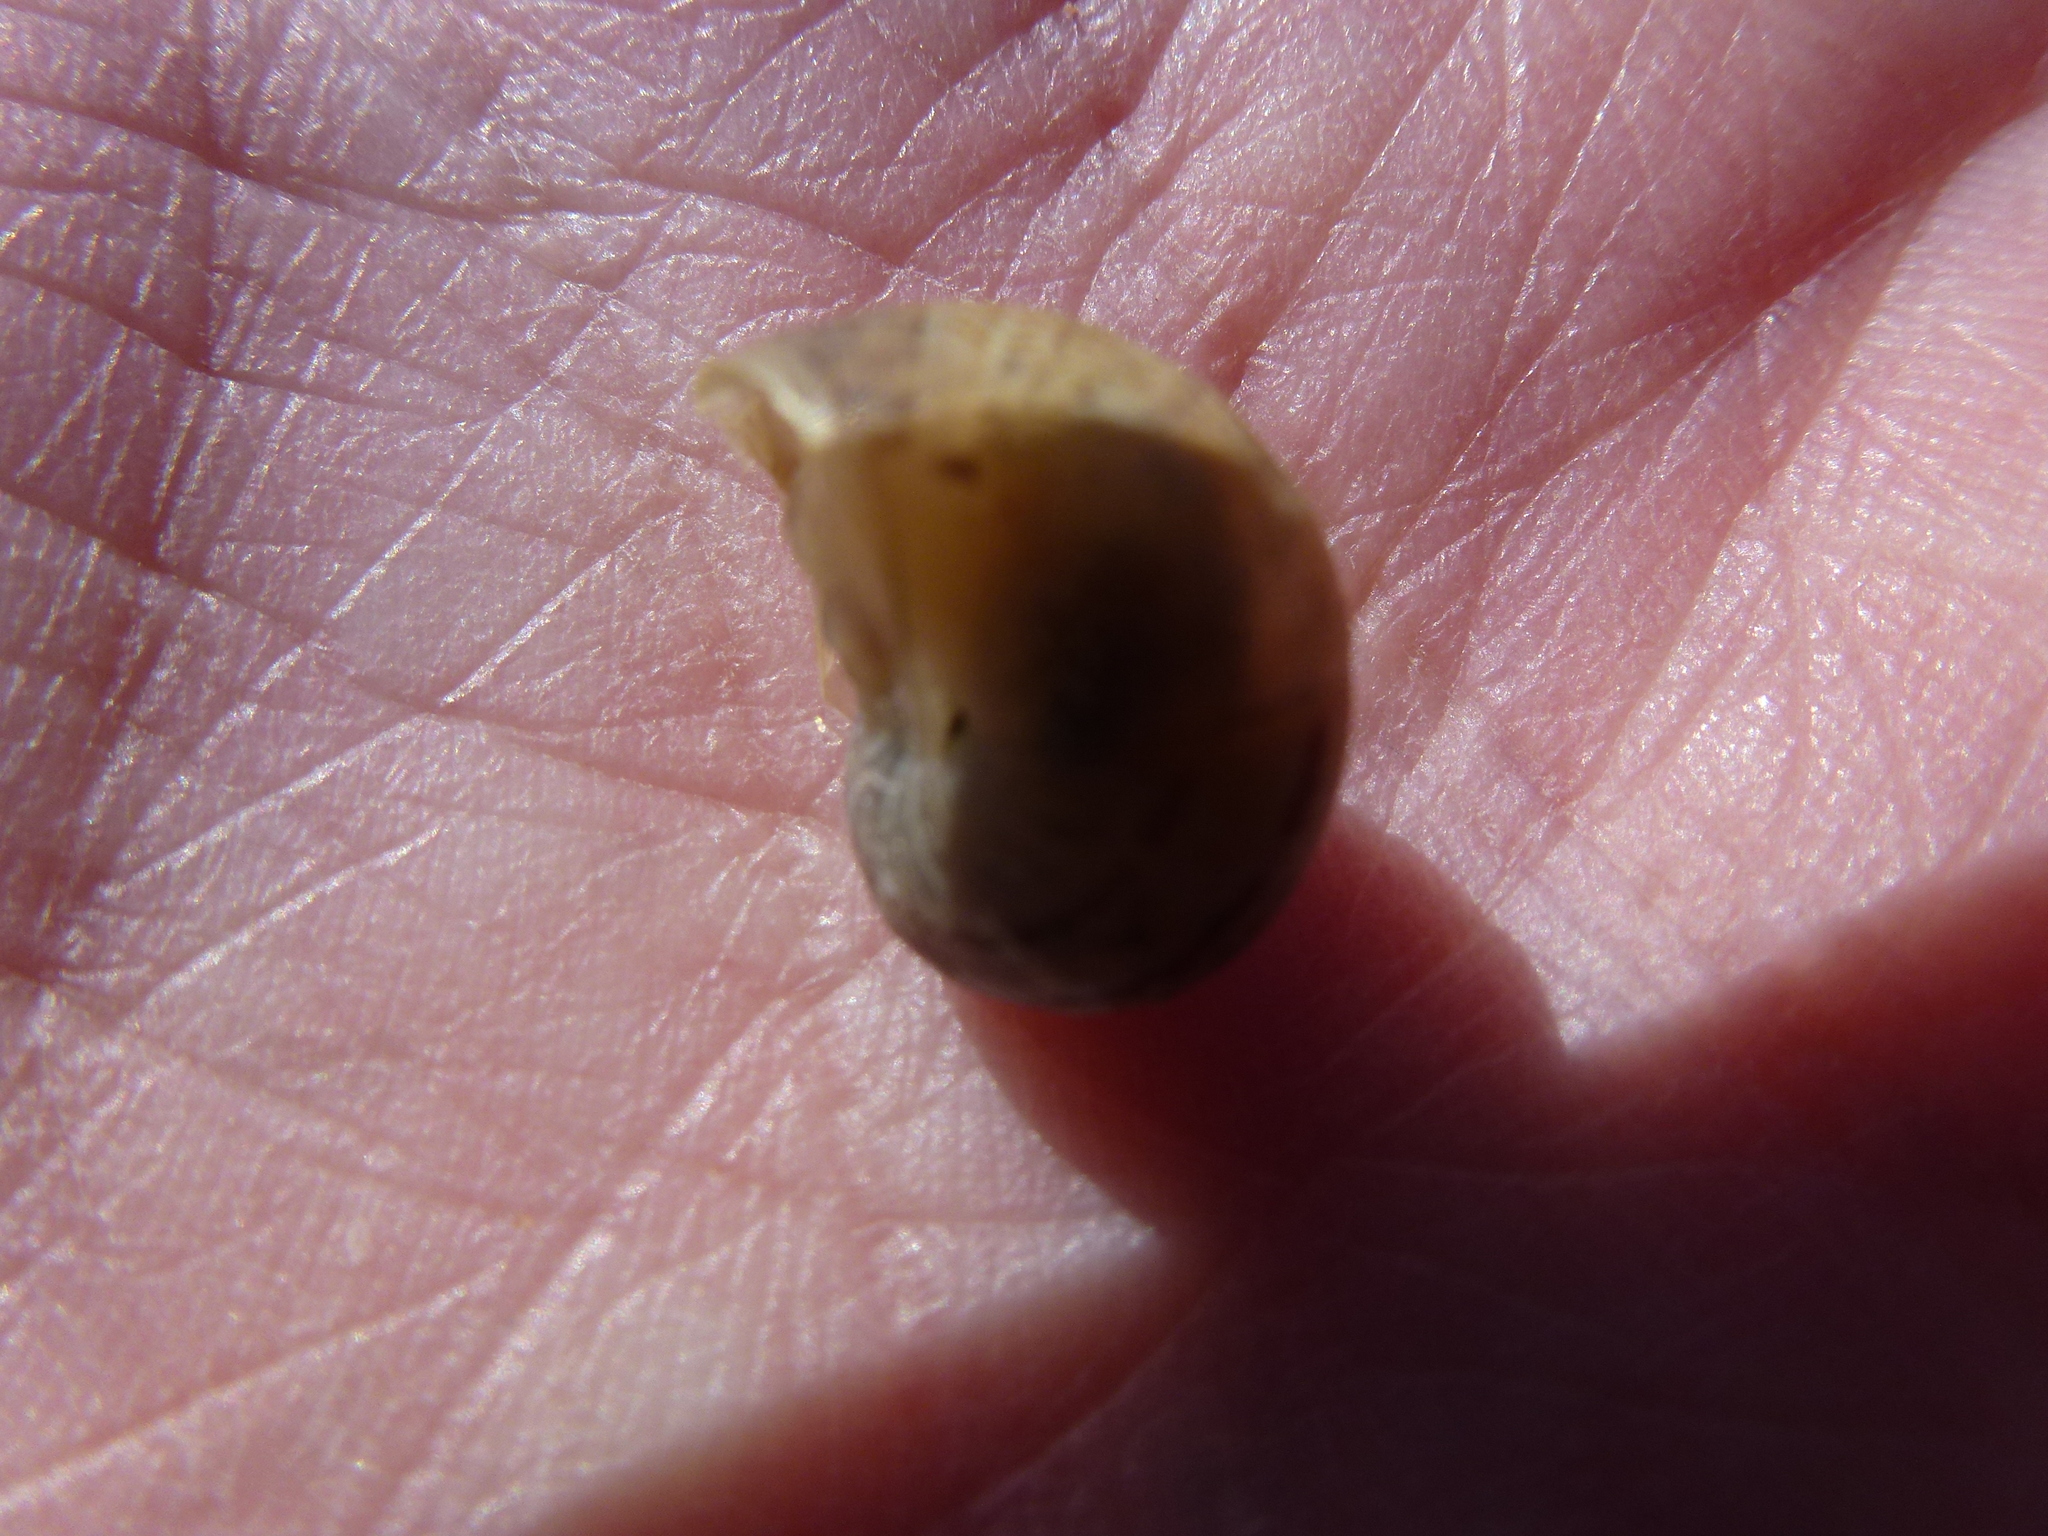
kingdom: Animalia
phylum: Mollusca
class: Gastropoda
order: Stylommatophora
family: Helicidae
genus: Cornu
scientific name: Cornu aspersum
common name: Brown garden snail
